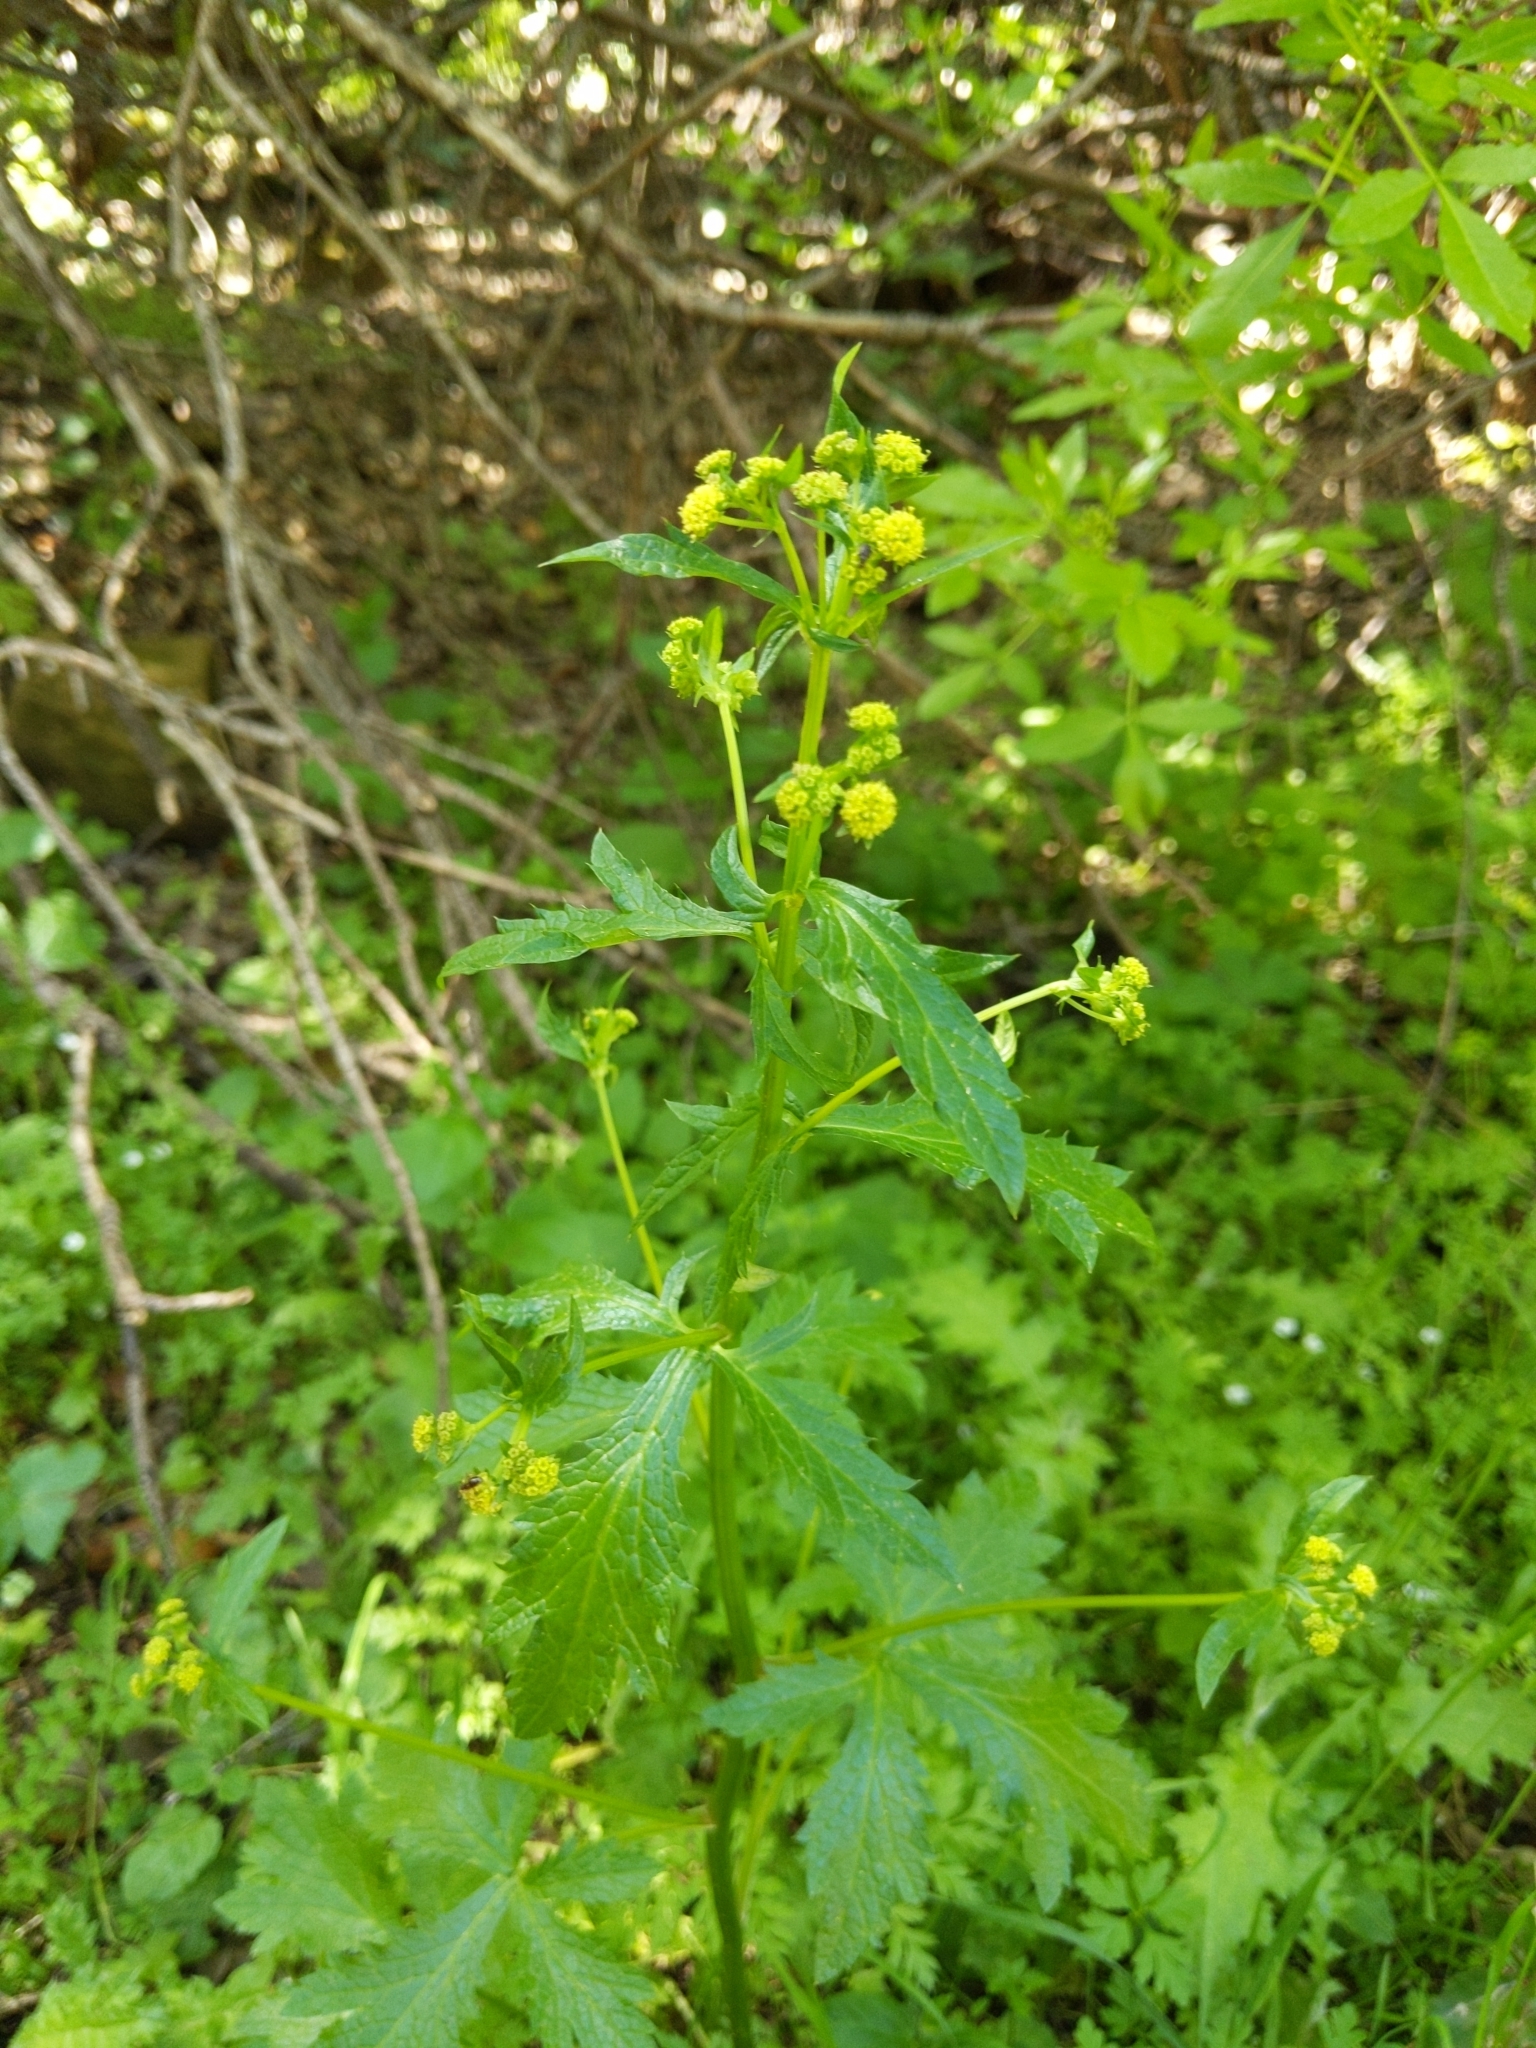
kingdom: Plantae
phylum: Tracheophyta
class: Magnoliopsida
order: Apiales
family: Apiaceae
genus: Sanicula
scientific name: Sanicula crassicaulis
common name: Western snakeroot
